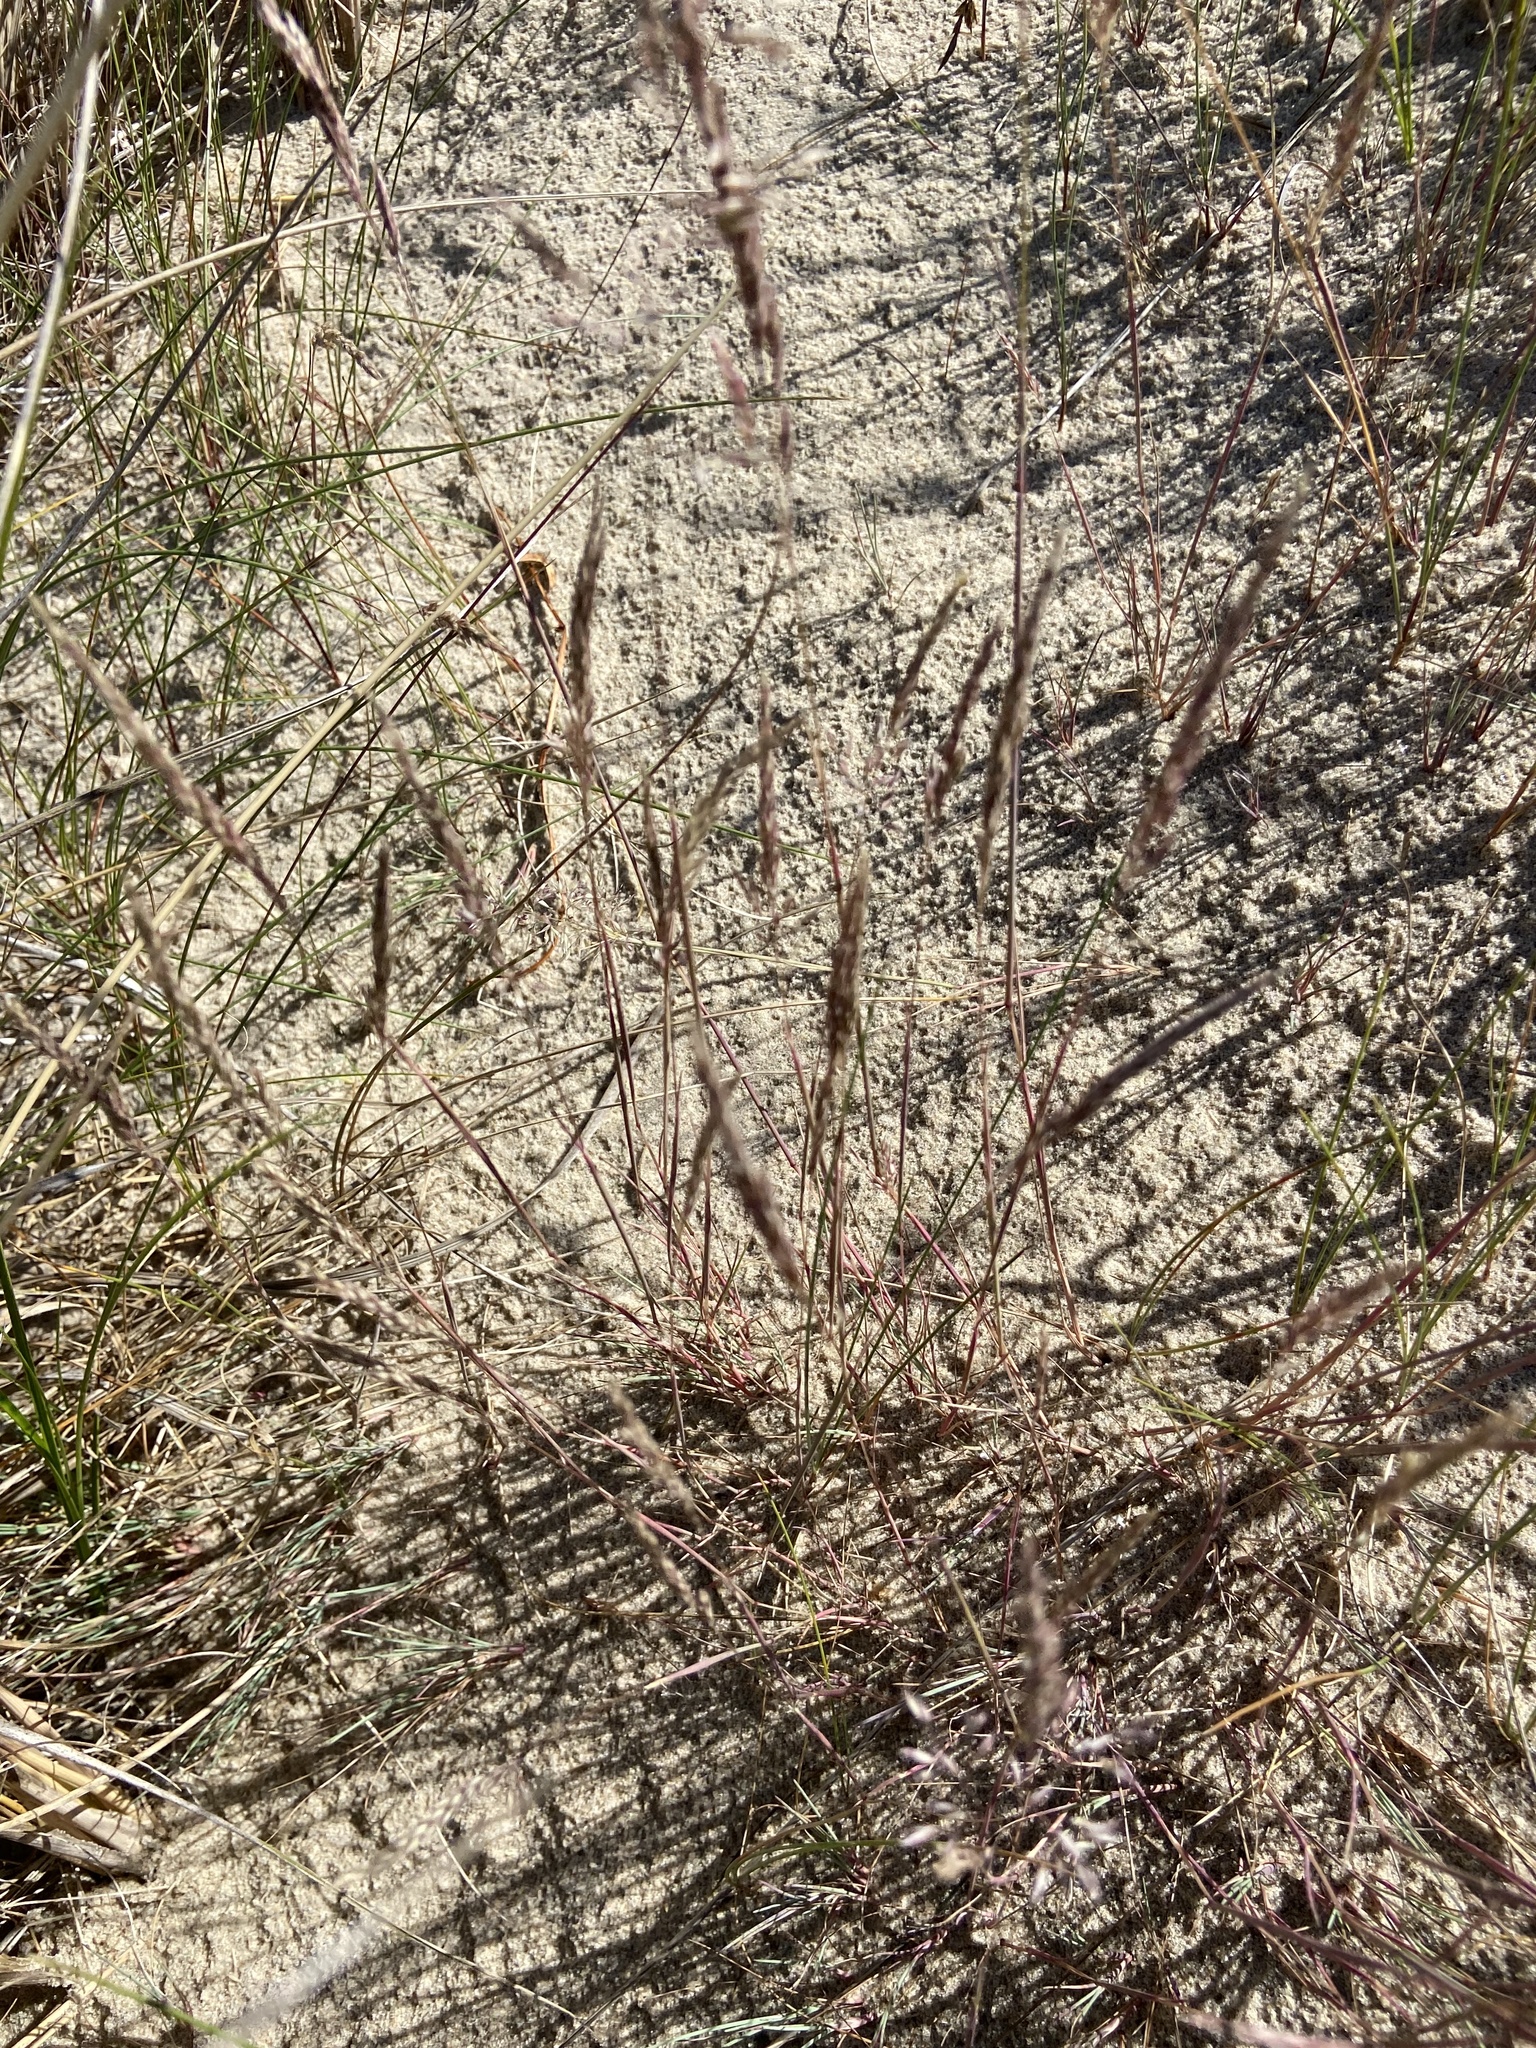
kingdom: Plantae
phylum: Tracheophyta
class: Liliopsida
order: Poales
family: Poaceae
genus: Corynephorus
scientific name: Corynephorus canescens
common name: Grey hair-grass
